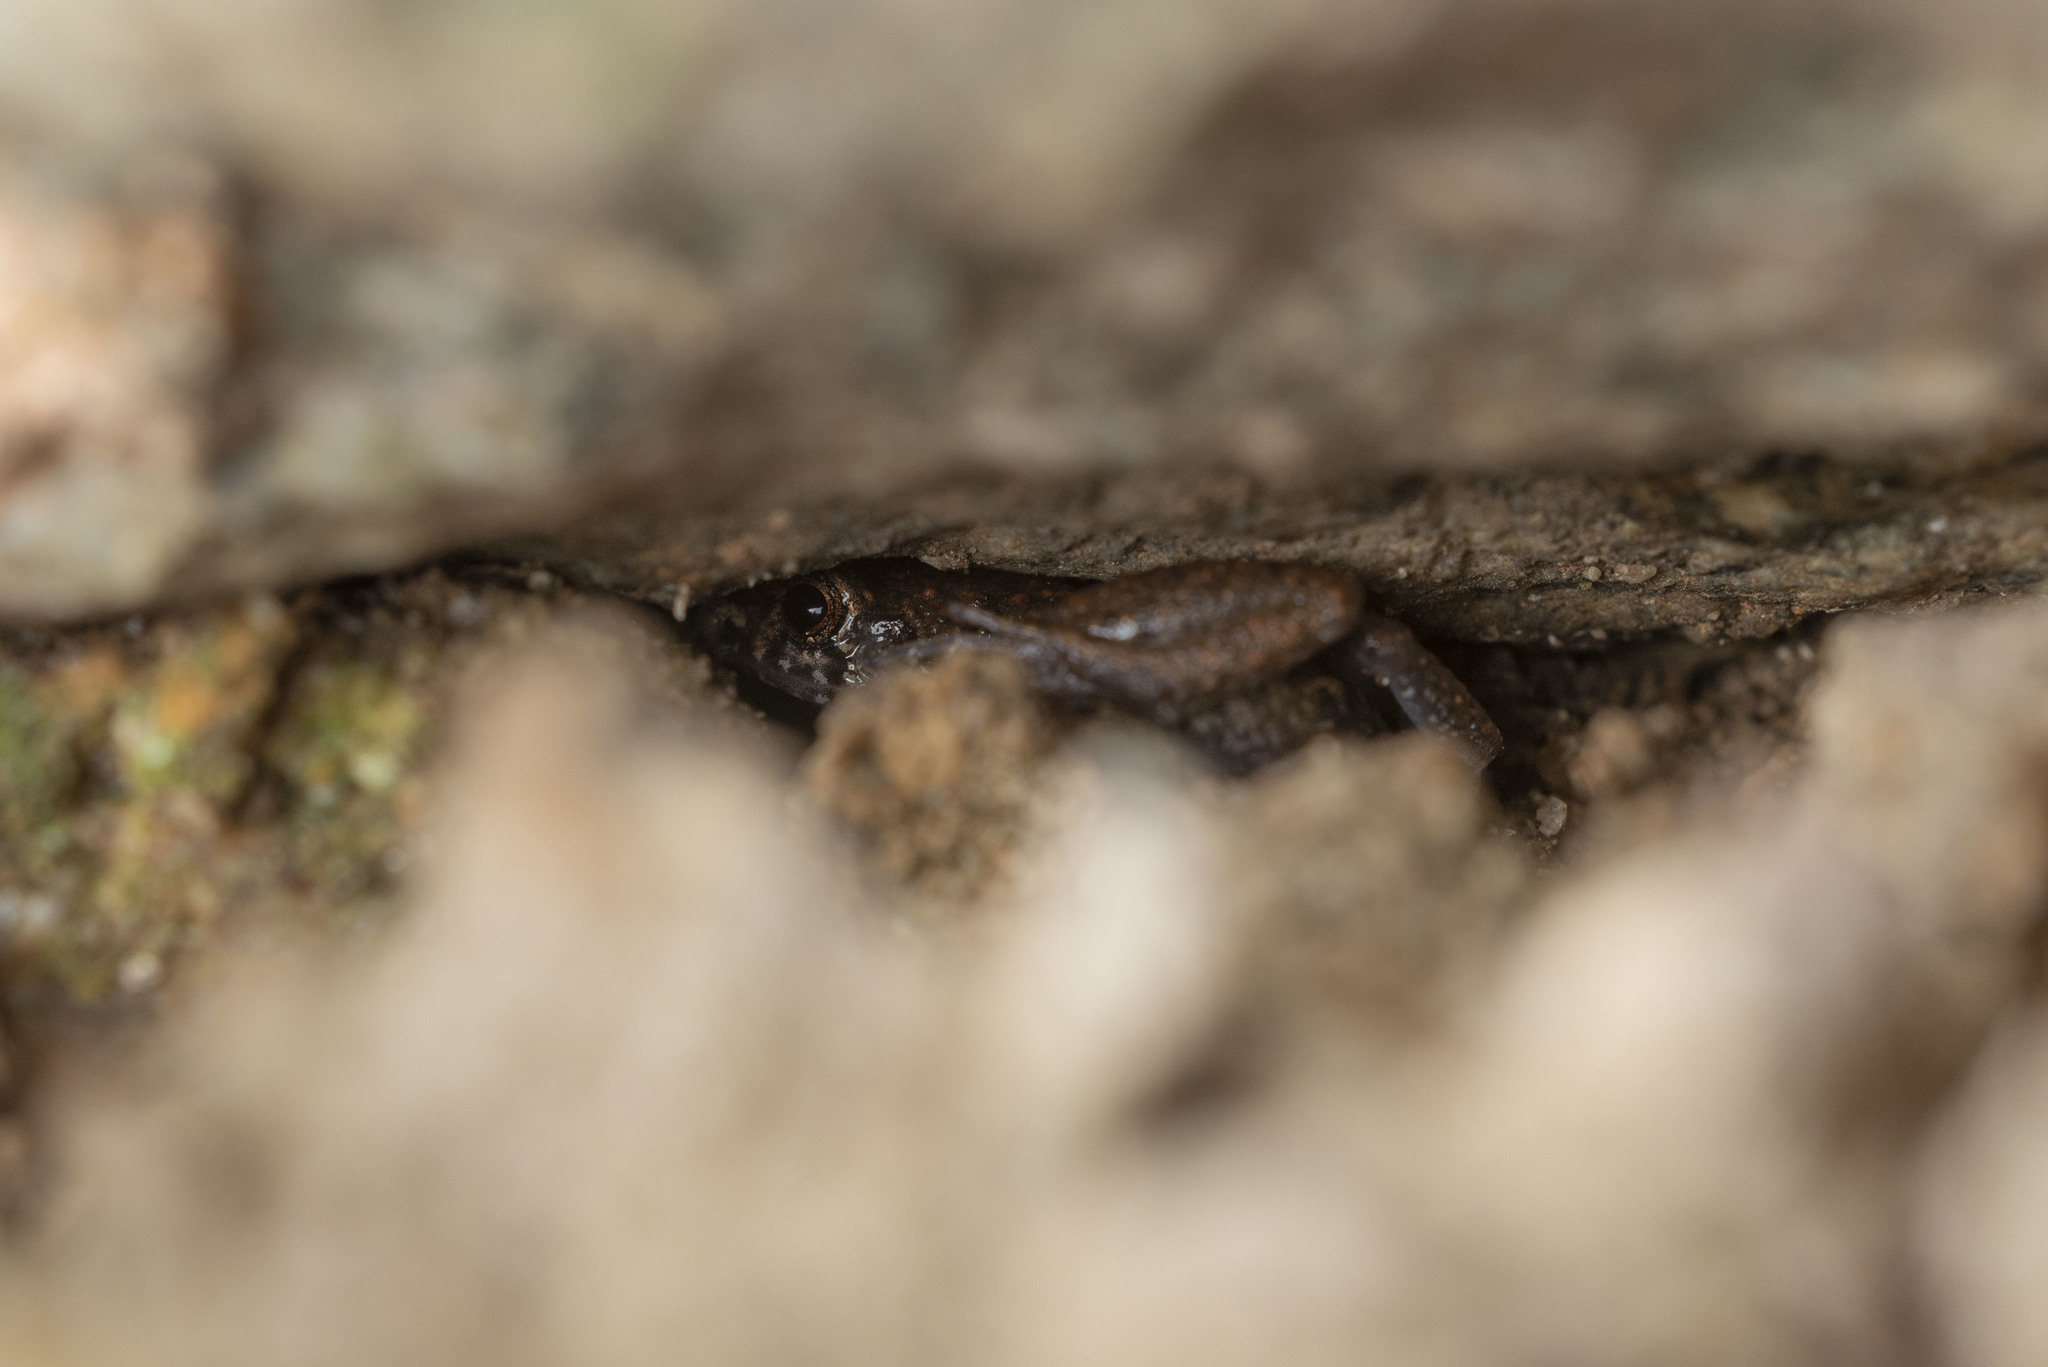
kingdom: Animalia
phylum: Chordata
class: Amphibia
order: Anura
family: Eleutherodactylidae
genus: Eleutherodactylus
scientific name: Eleutherodactylus planirostris
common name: Greenhouse frog
